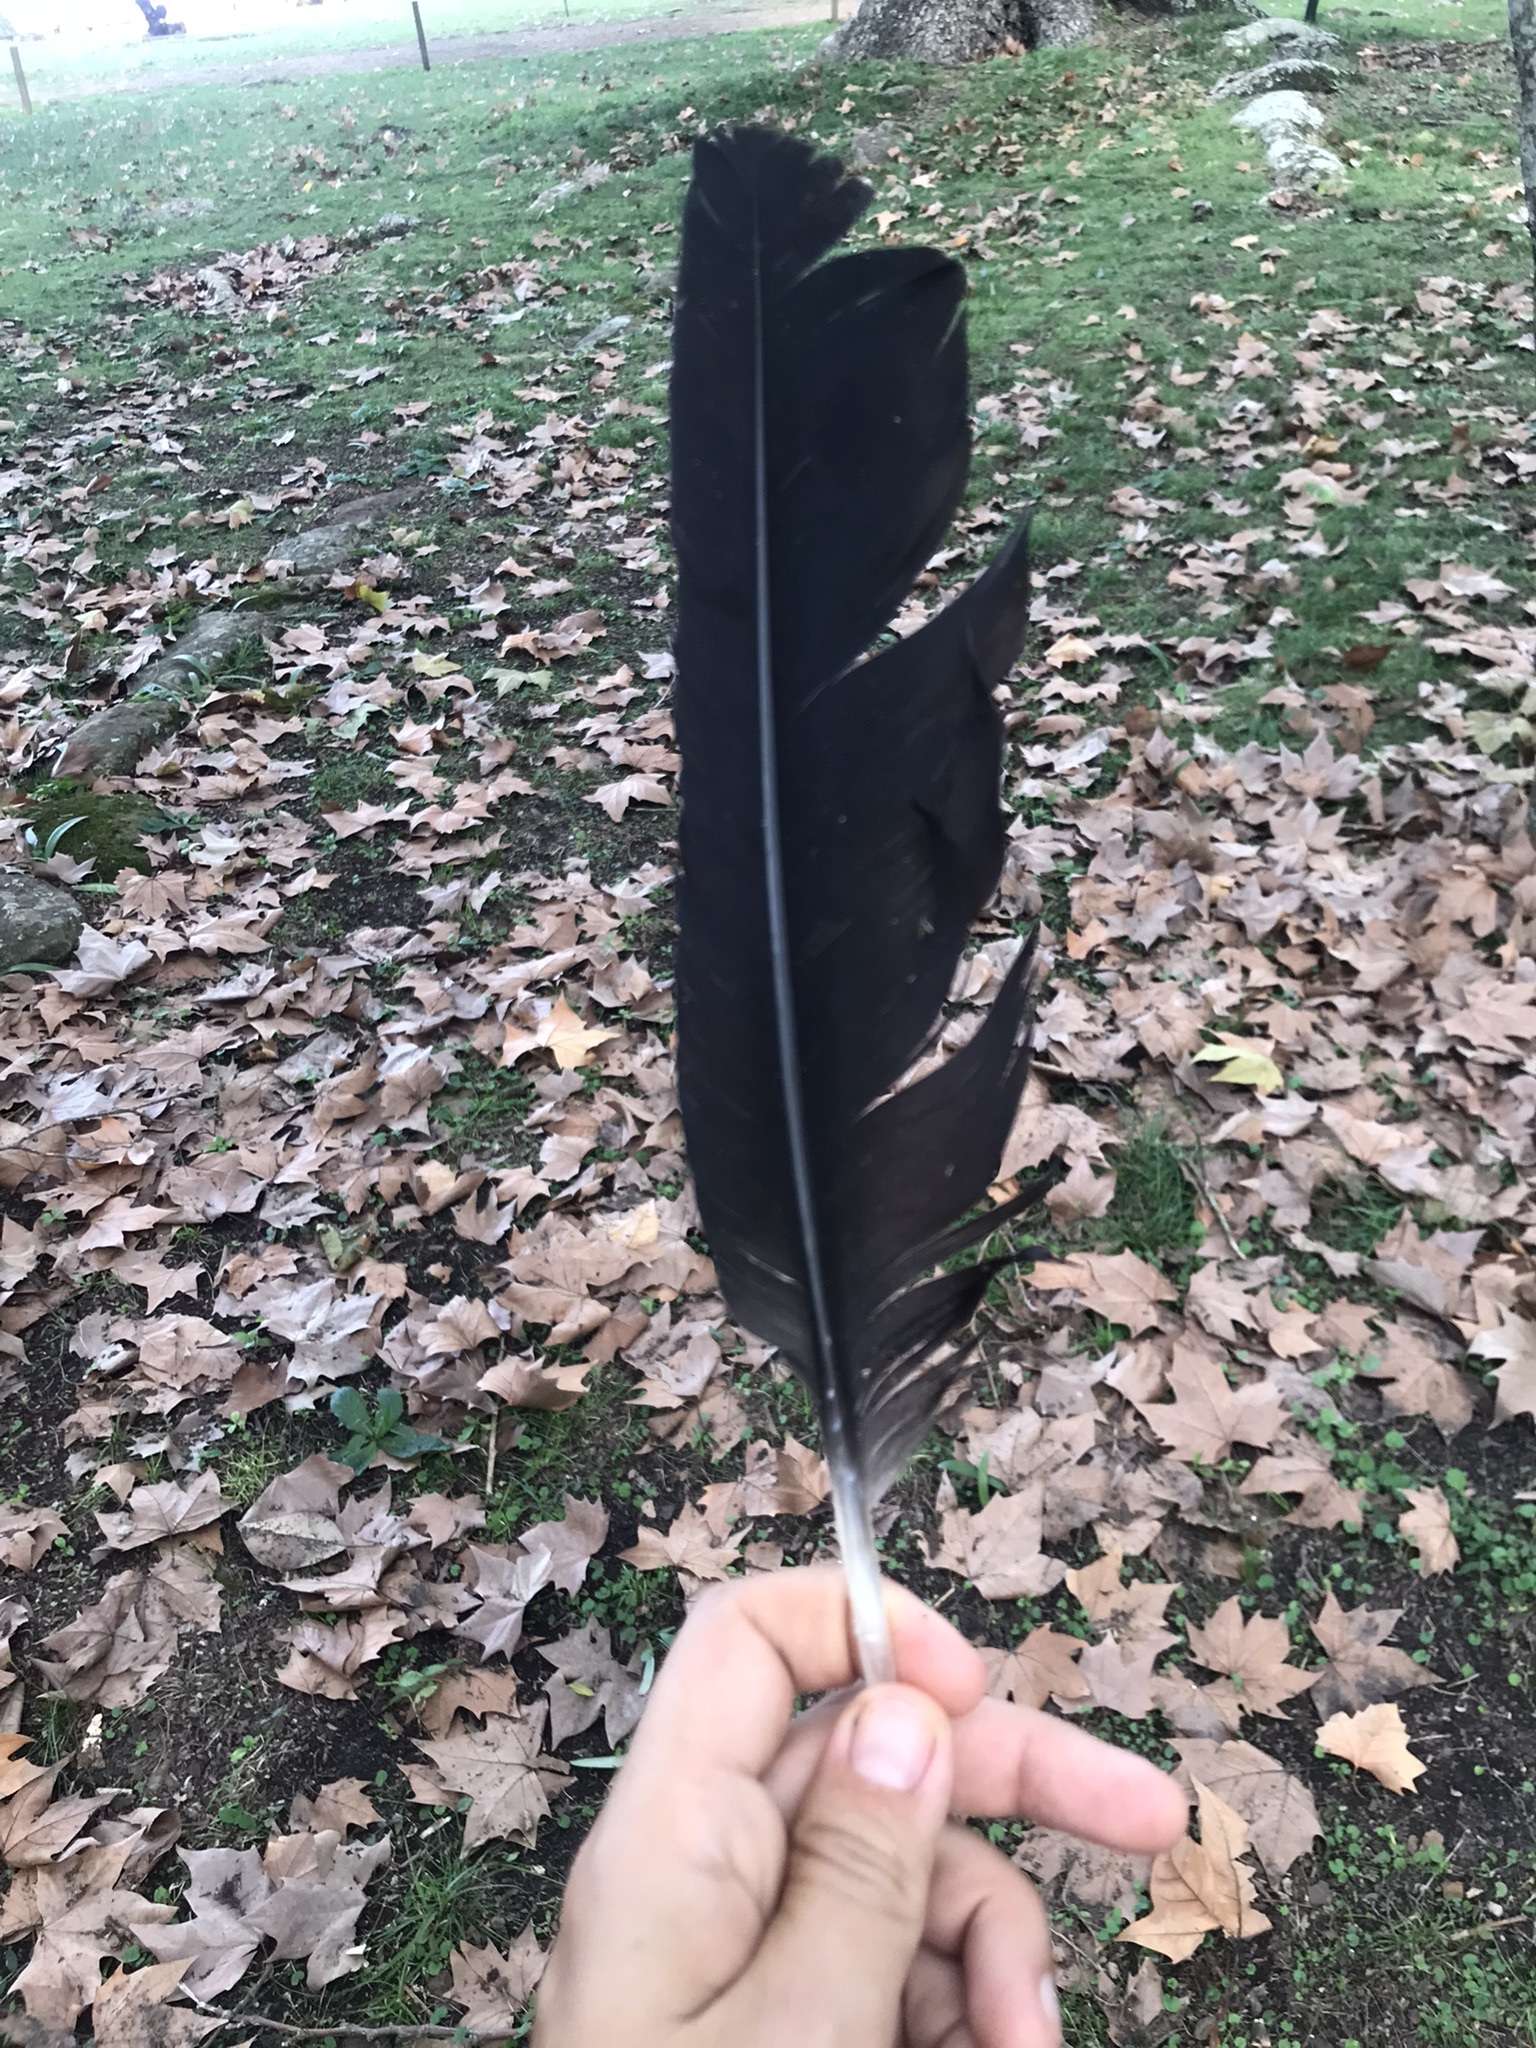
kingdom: Animalia
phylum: Chordata
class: Aves
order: Accipitriformes
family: Cathartidae
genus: Coragyps
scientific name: Coragyps atratus
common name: Black vulture
